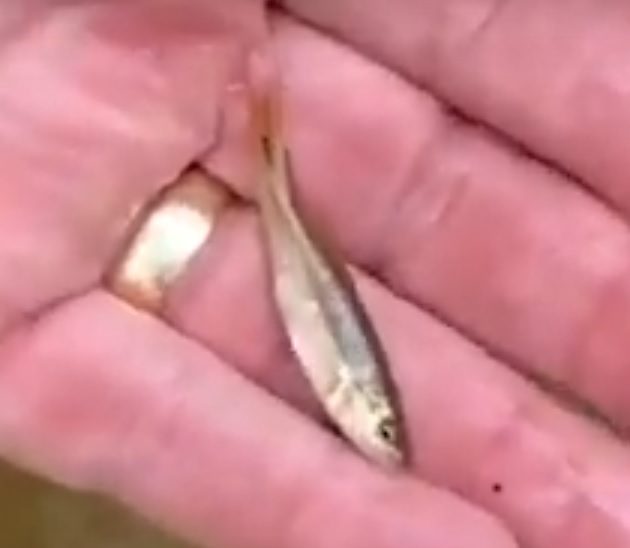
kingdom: Animalia
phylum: Chordata
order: Cypriniformes
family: Cyprinidae
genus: Semotilus
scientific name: Semotilus atromaculatus
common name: Creek chub
